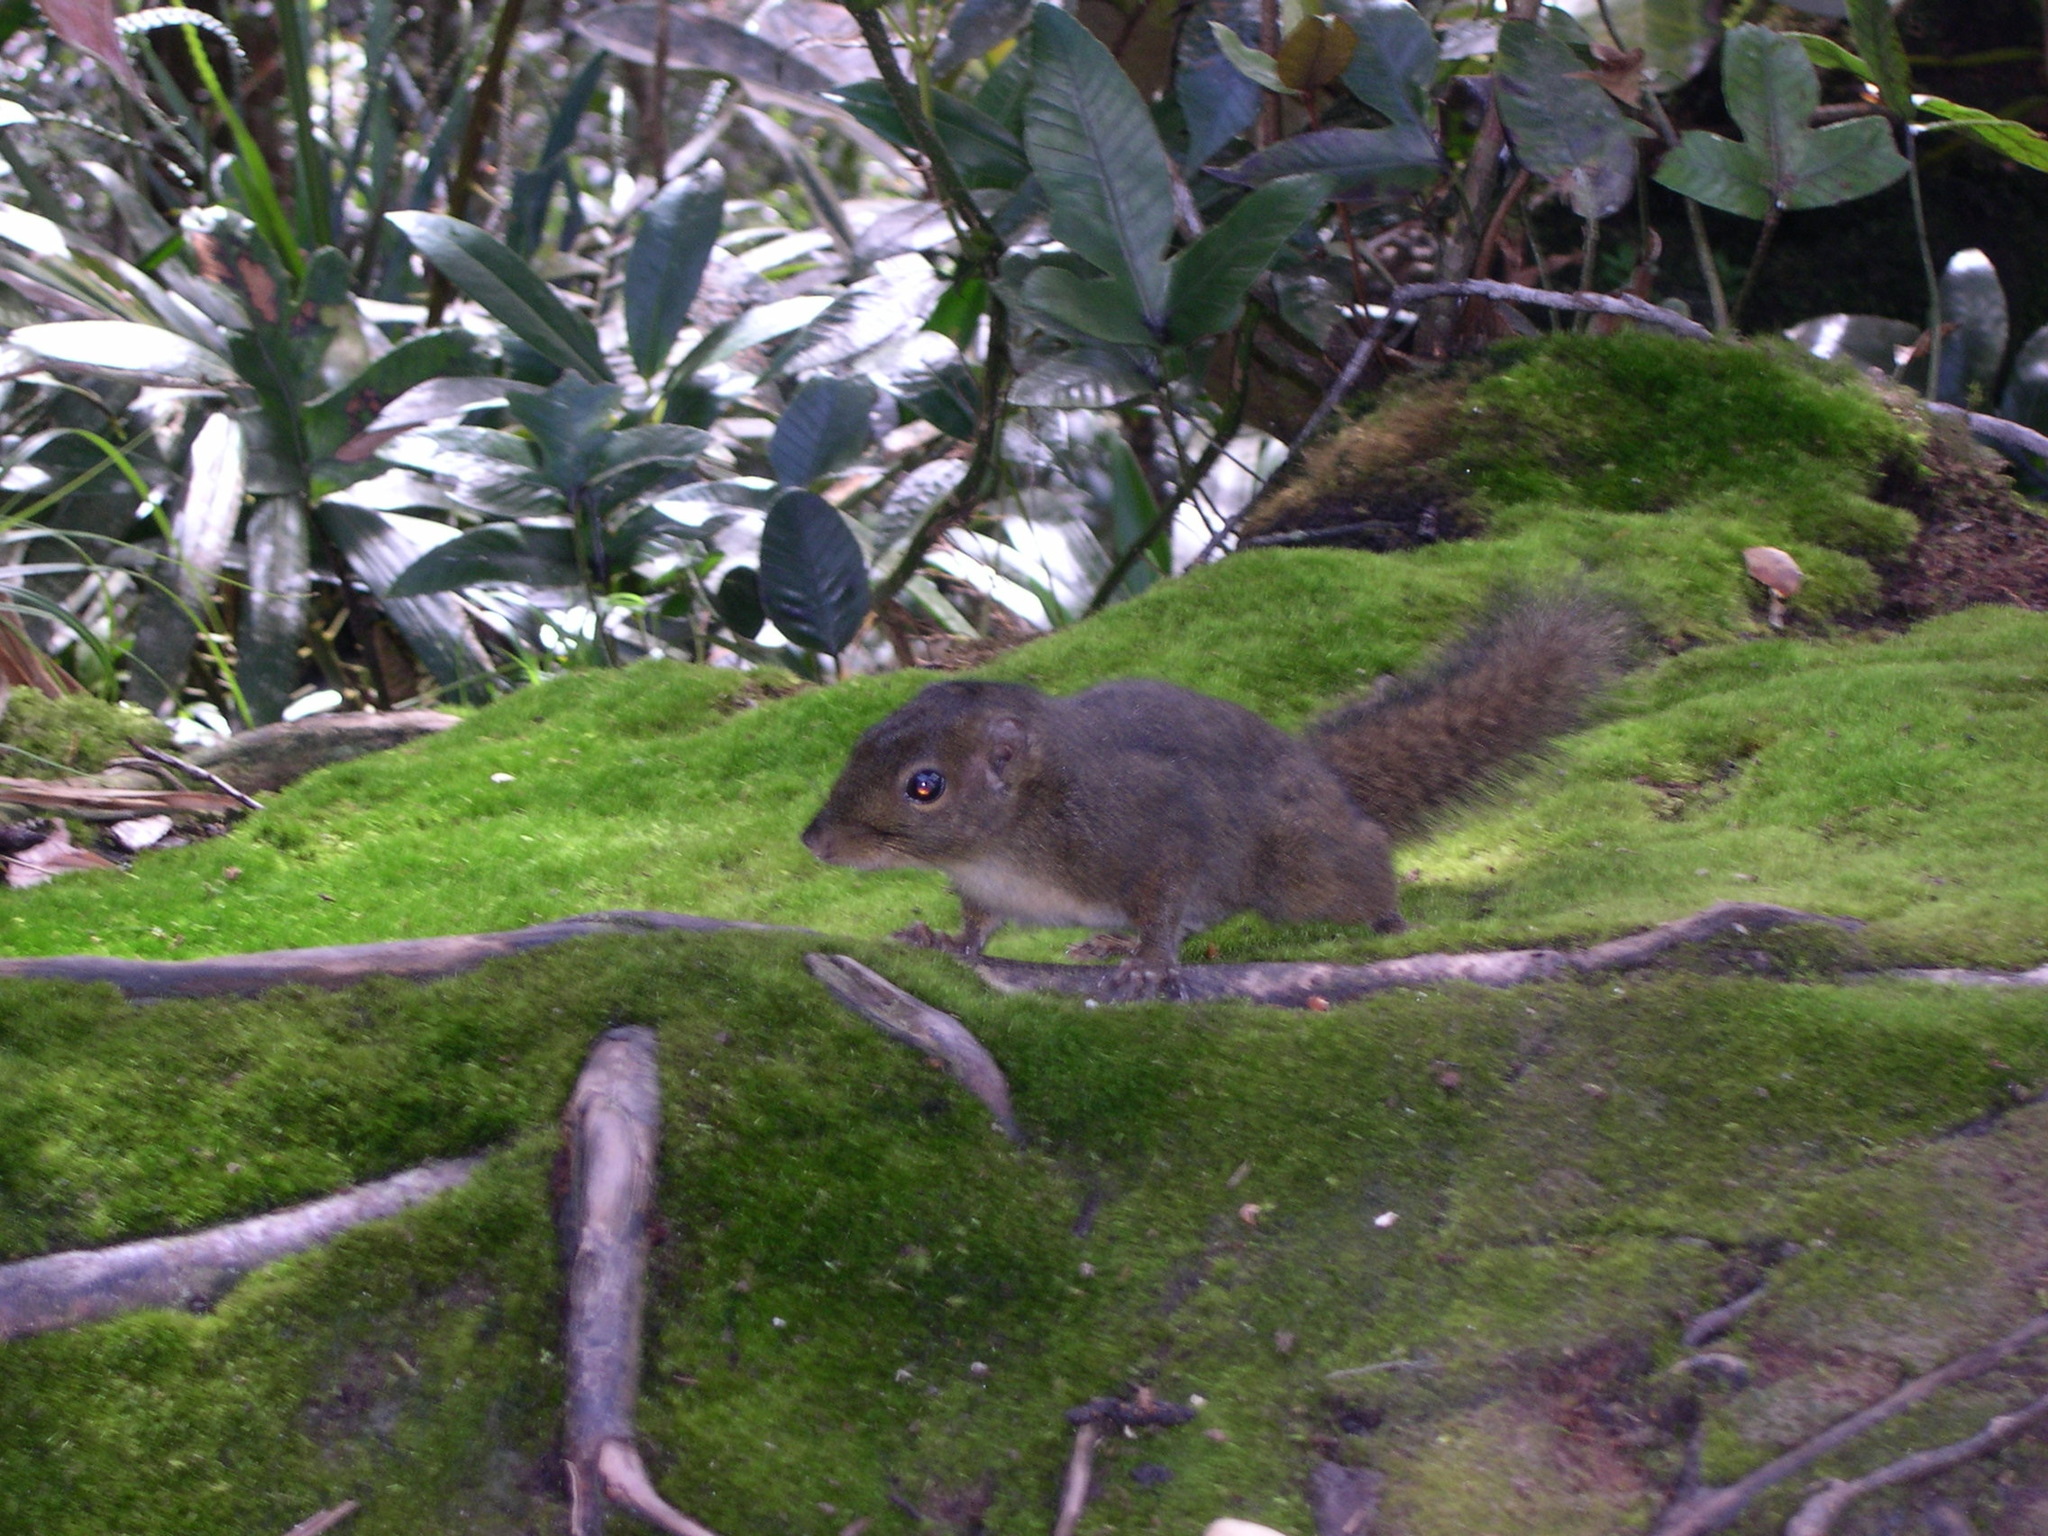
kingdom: Animalia
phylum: Chordata
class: Mammalia
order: Rodentia
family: Sciuridae
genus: Sundasciurus
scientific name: Sundasciurus everetti
